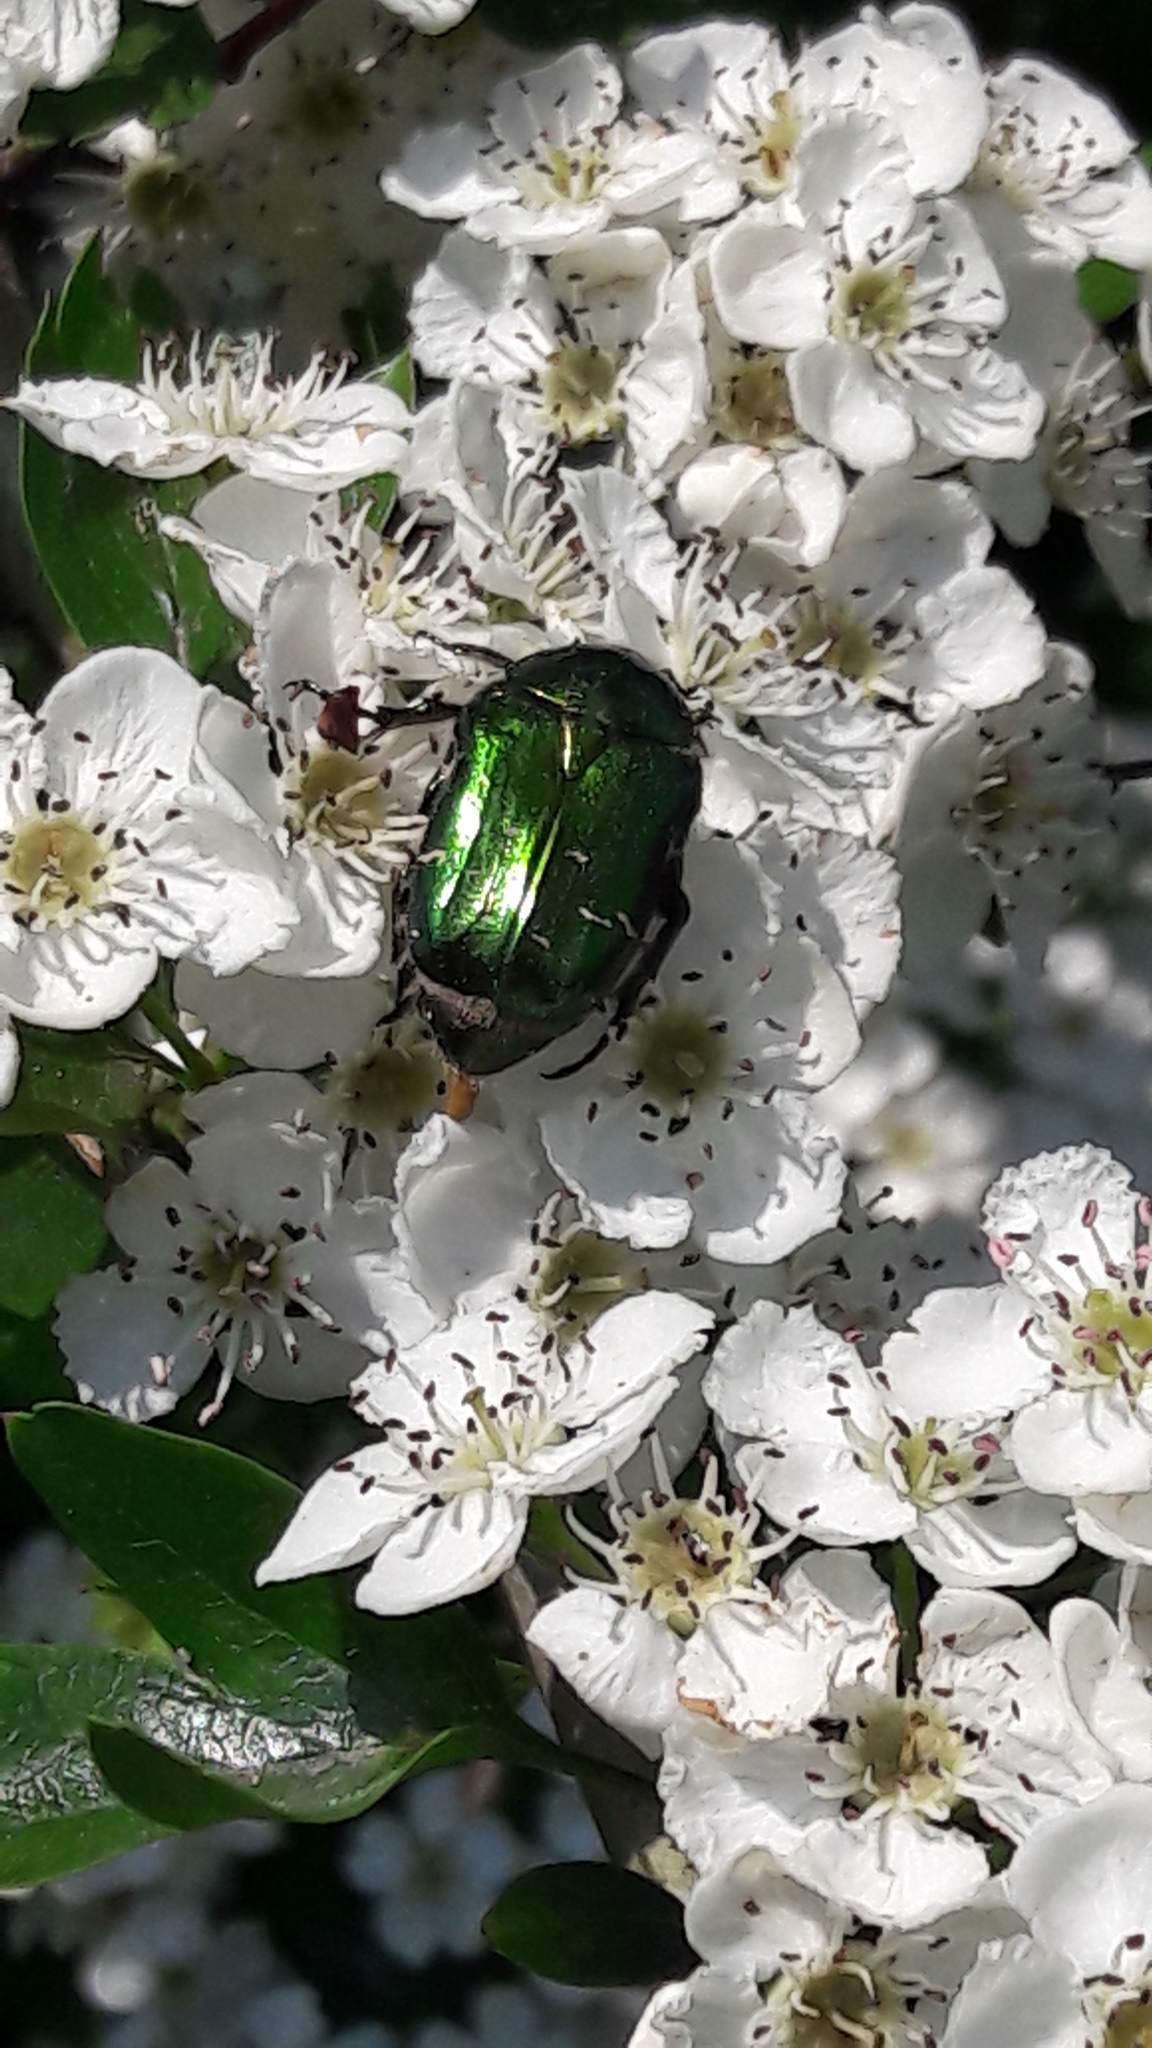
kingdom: Animalia
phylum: Arthropoda
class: Insecta
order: Coleoptera
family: Scarabaeidae
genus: Cetonia
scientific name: Cetonia aurata
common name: Rose chafer
